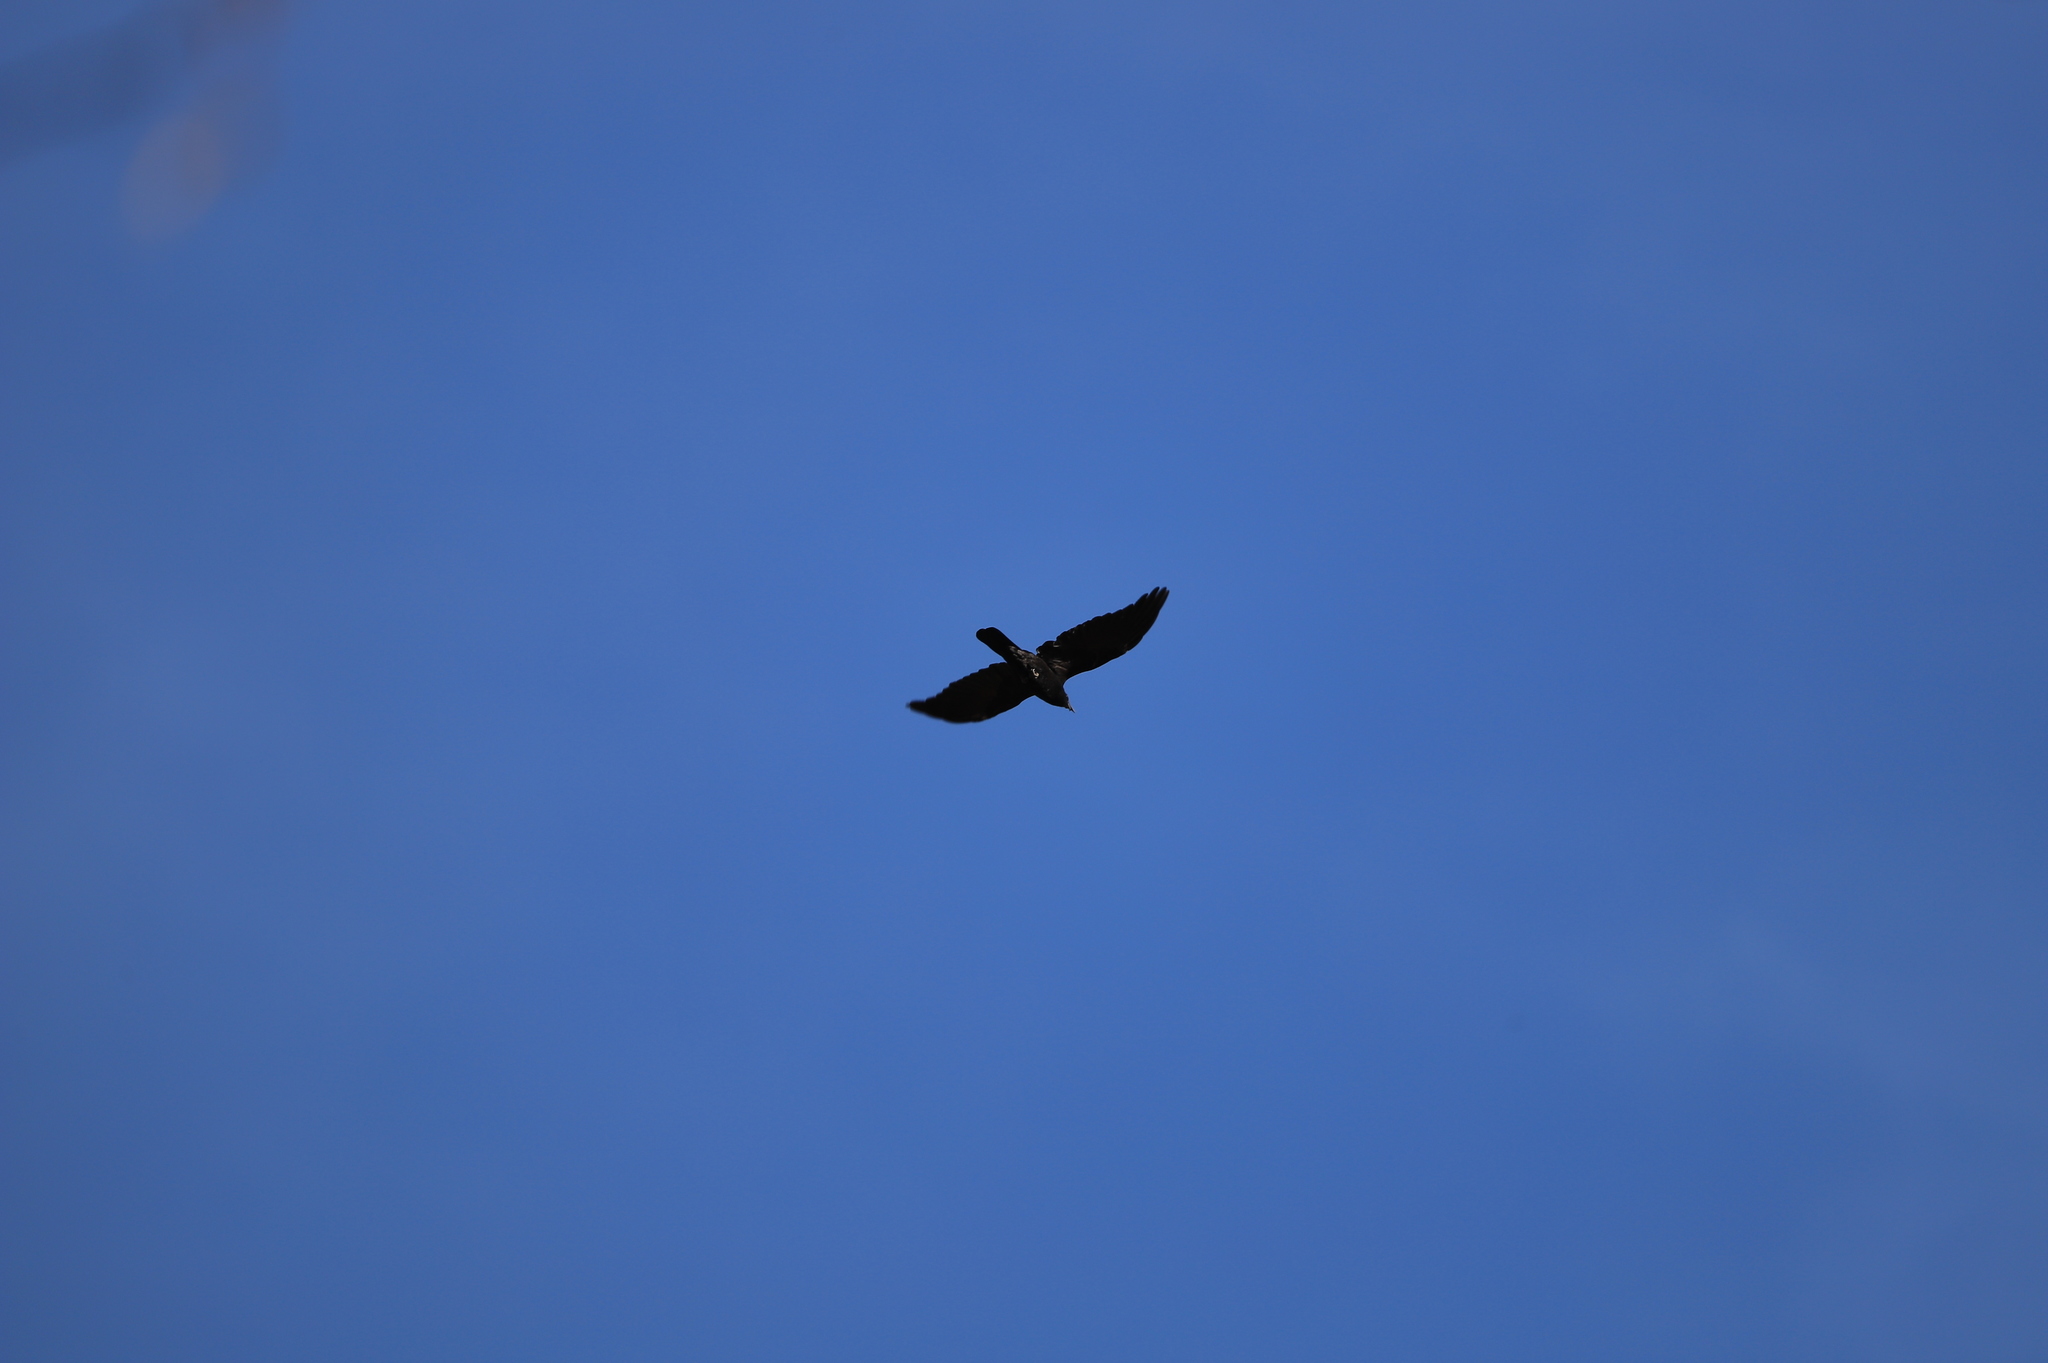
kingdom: Animalia
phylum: Chordata
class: Aves
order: Passeriformes
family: Corvidae
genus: Corvus
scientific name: Corvus corax
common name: Common raven
